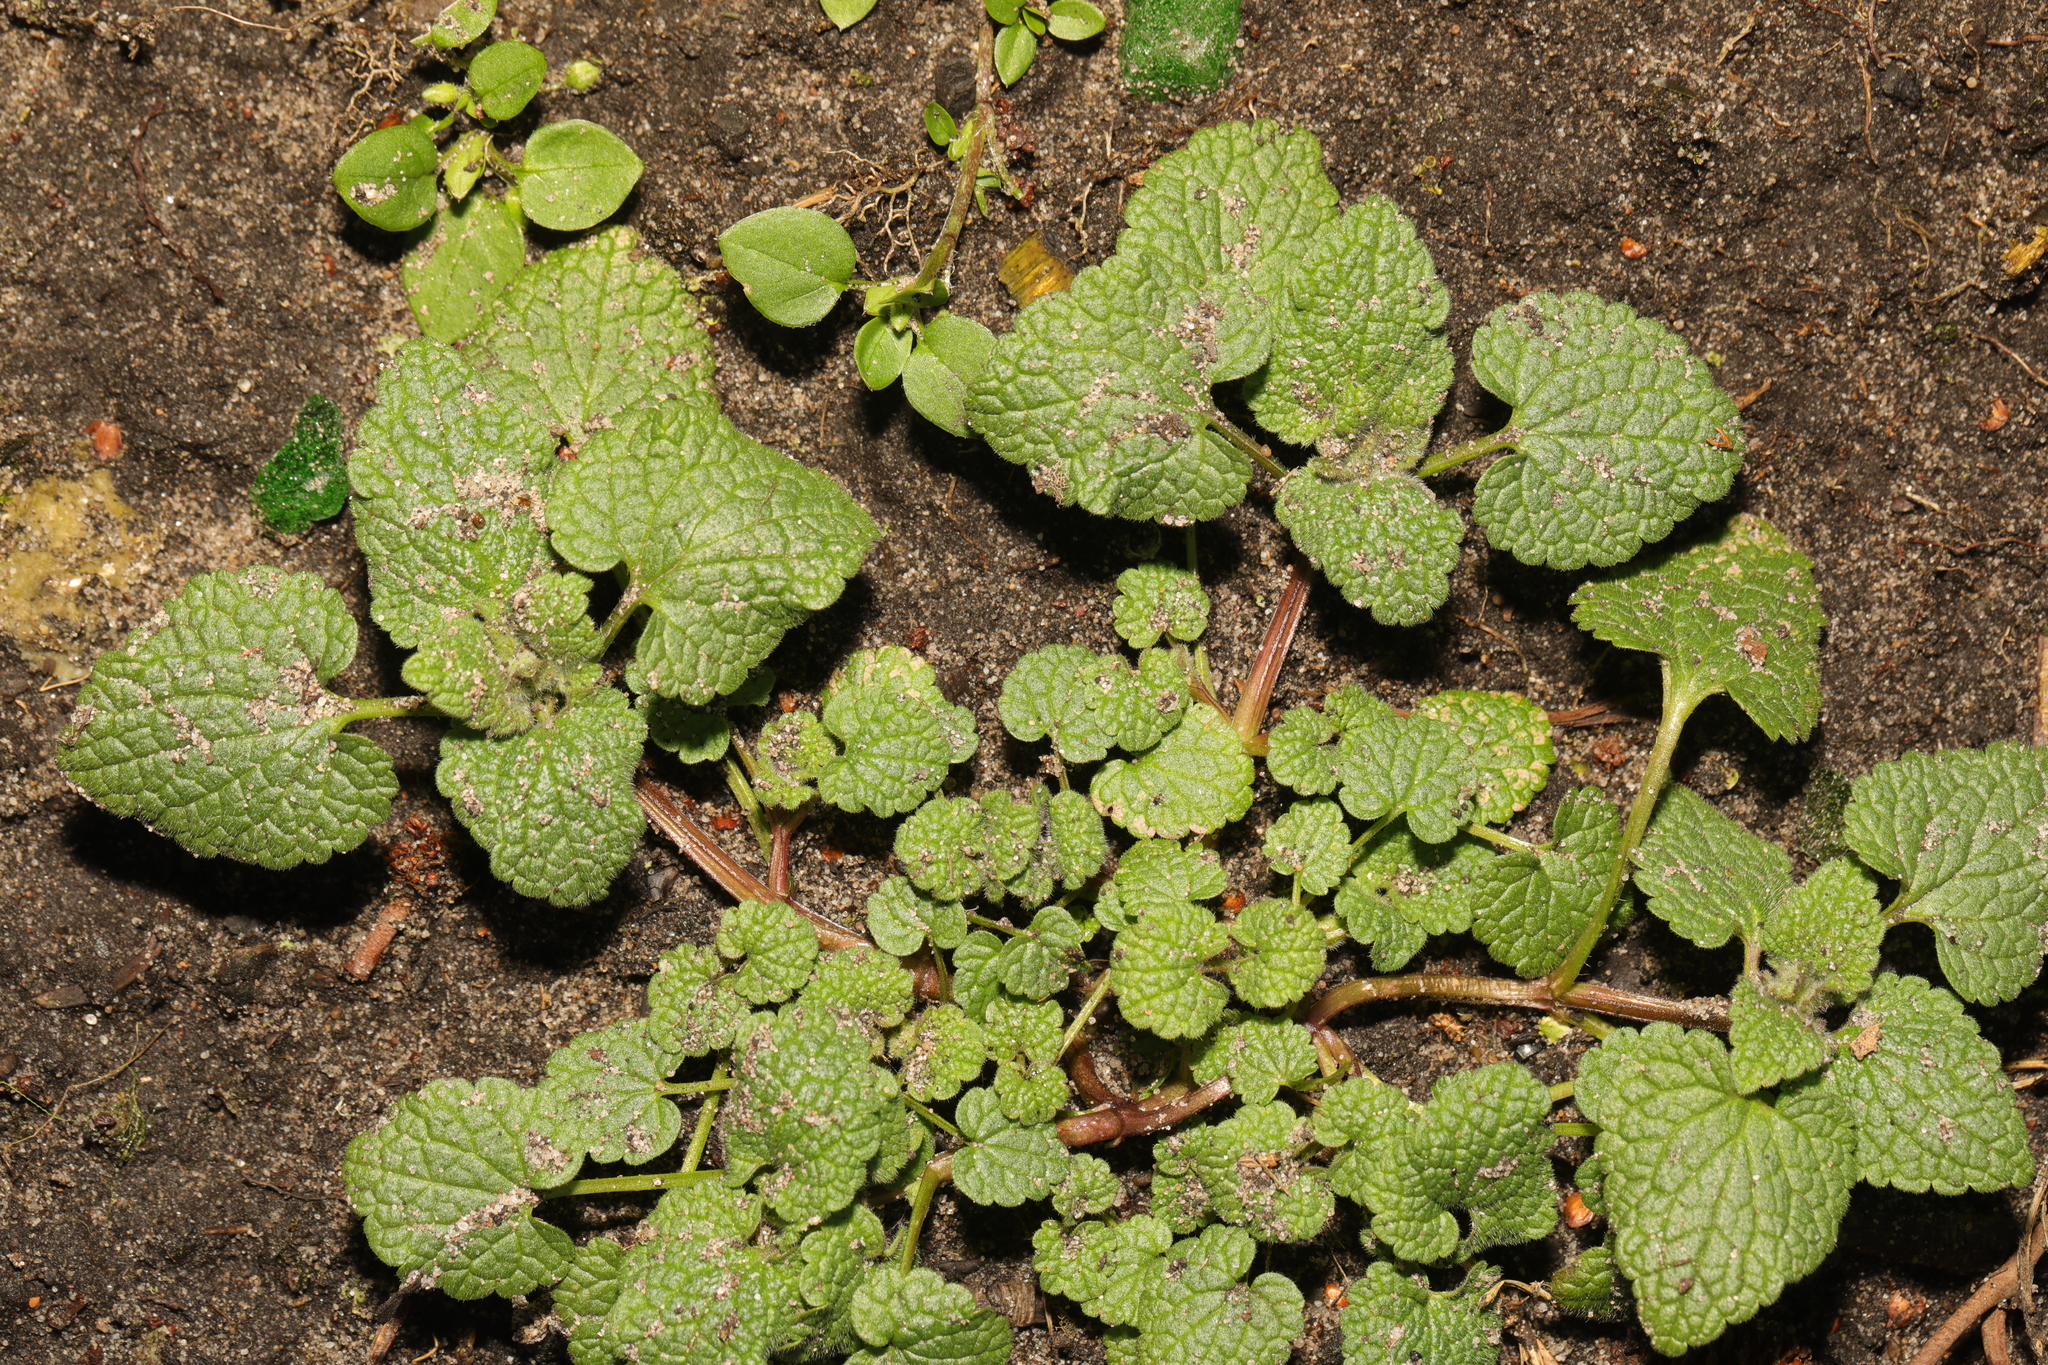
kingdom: Plantae
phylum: Tracheophyta
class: Magnoliopsida
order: Lamiales
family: Lamiaceae
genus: Lamium
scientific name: Lamium purpureum
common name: Red dead-nettle
